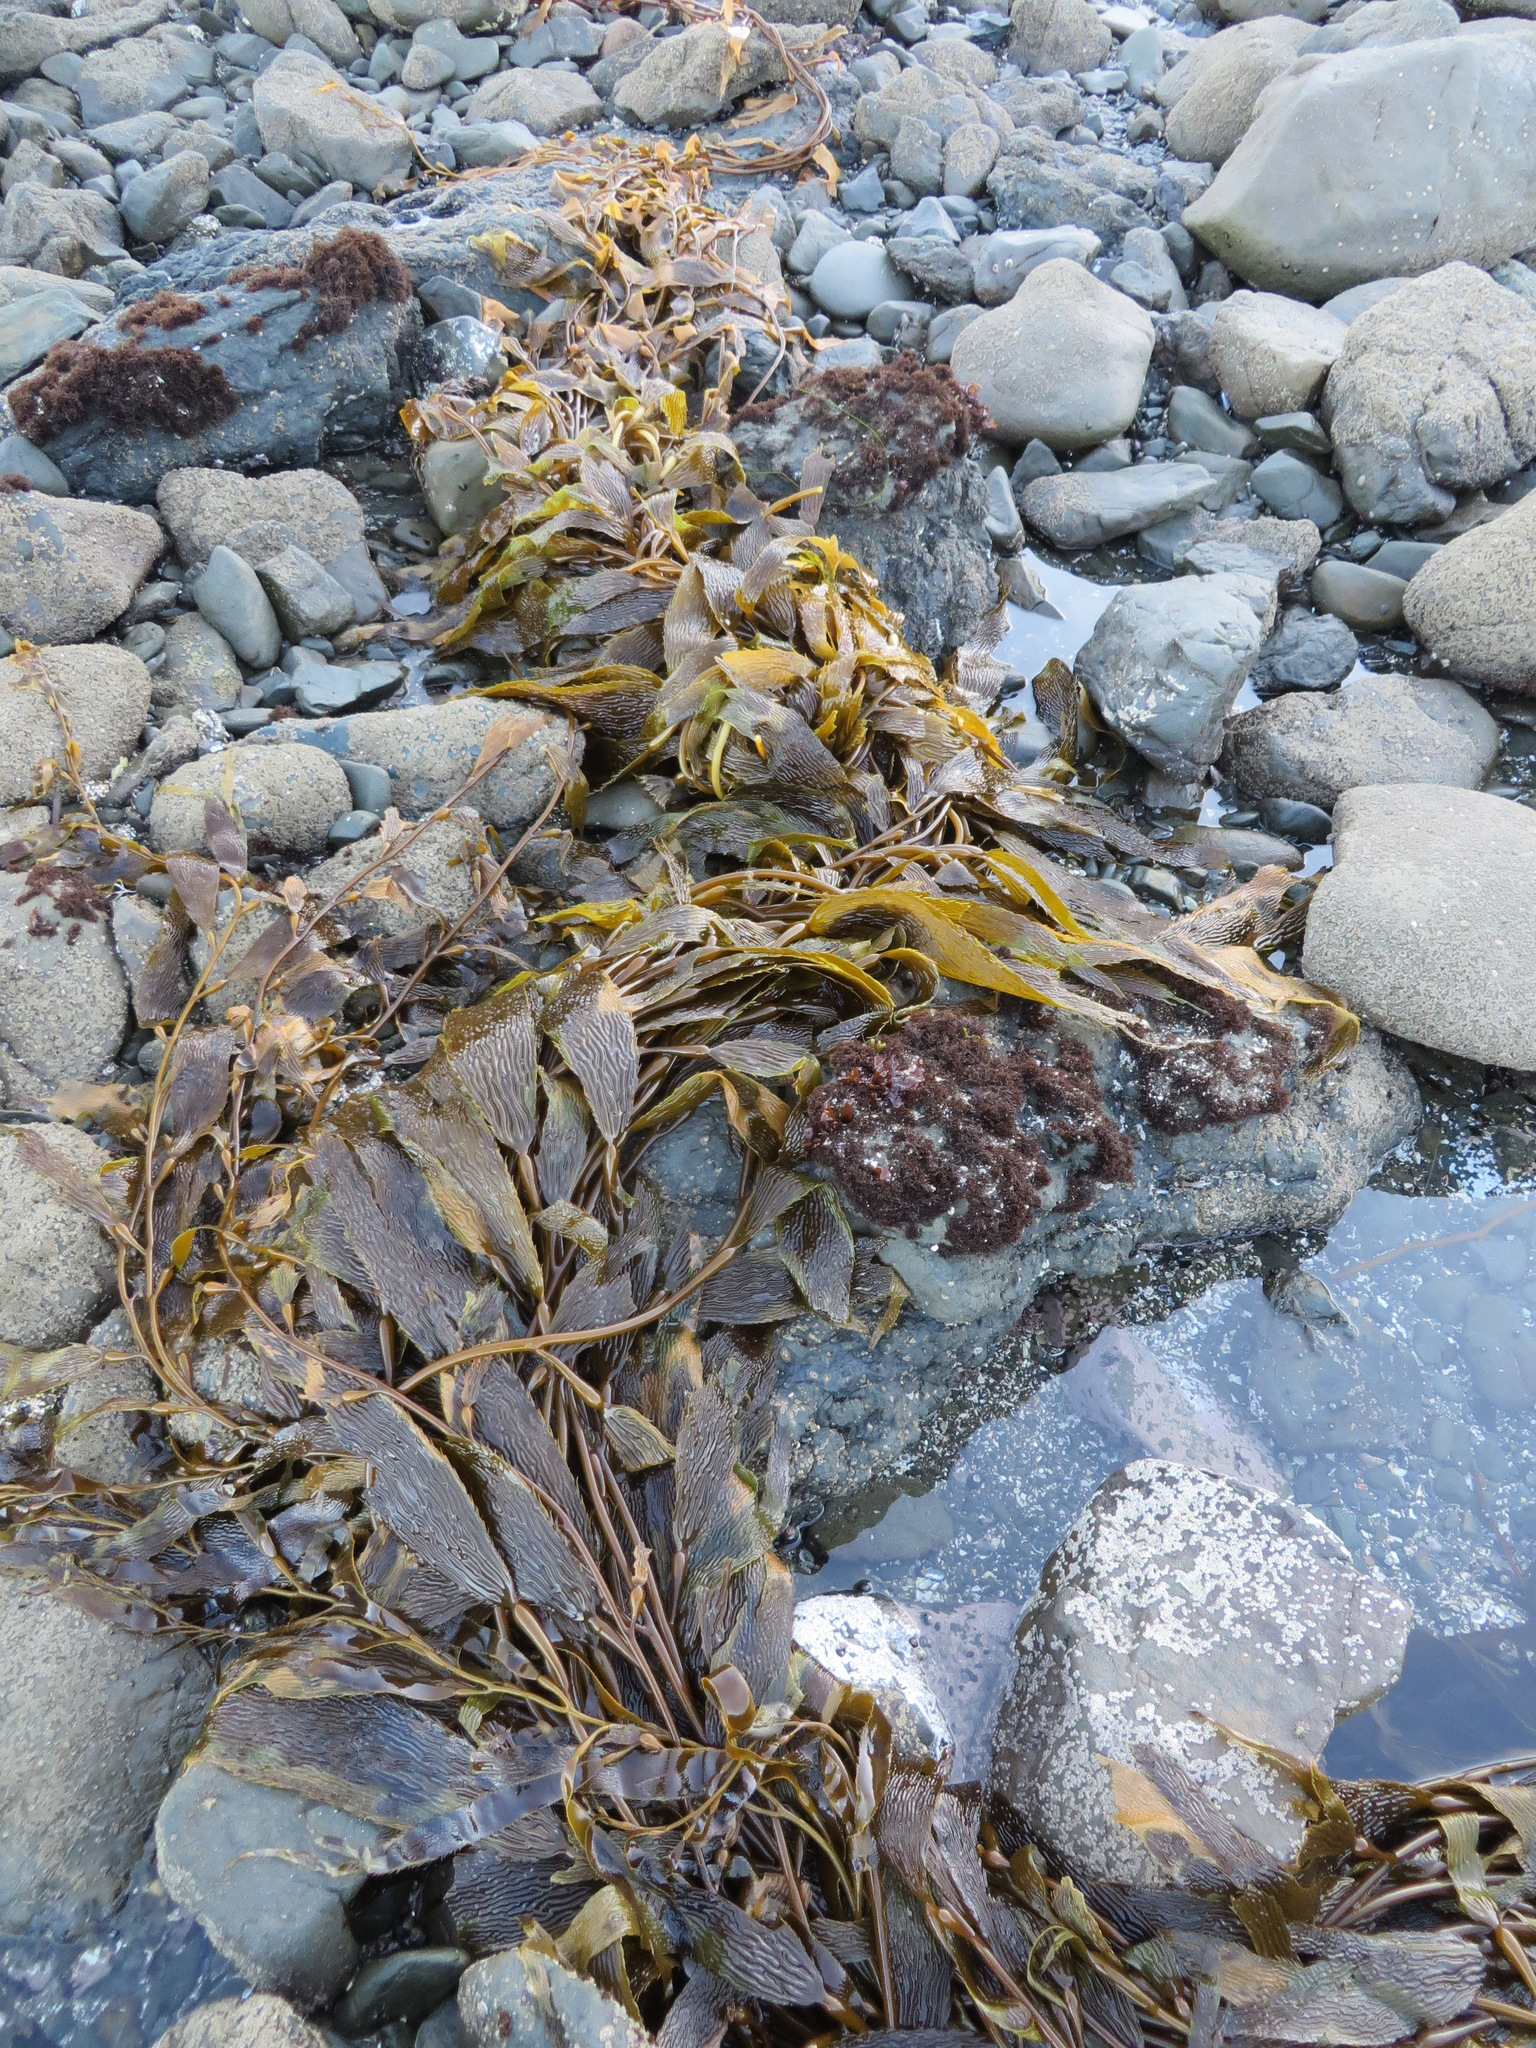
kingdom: Chromista
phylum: Ochrophyta
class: Phaeophyceae
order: Laminariales
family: Laminariaceae
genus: Macrocystis
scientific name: Macrocystis pyrifera
